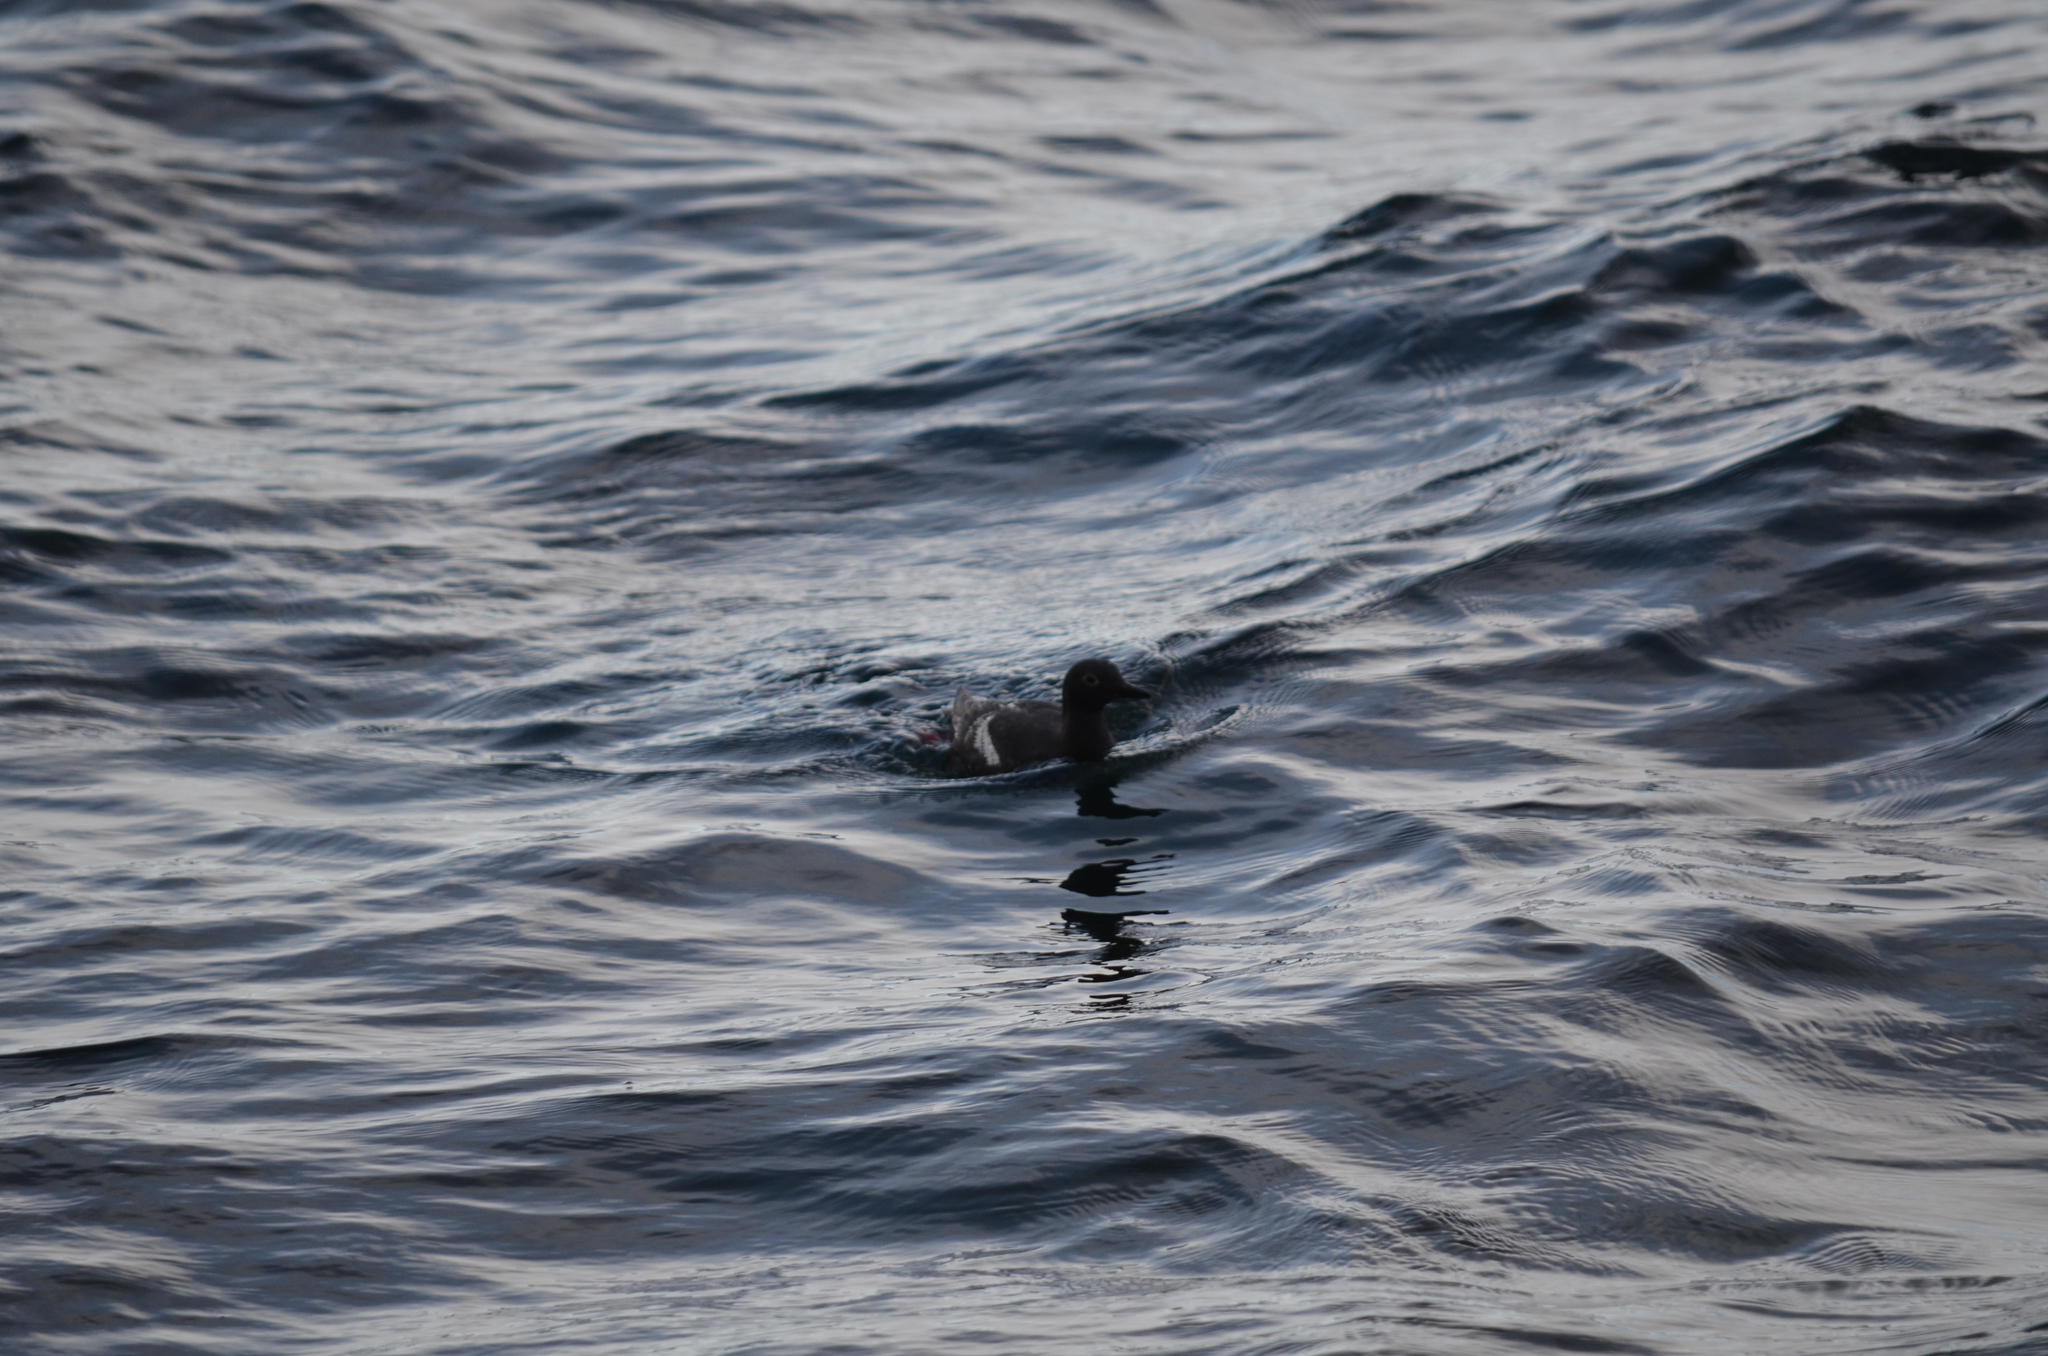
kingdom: Animalia
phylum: Chordata
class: Aves
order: Charadriiformes
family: Alcidae
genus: Cepphus
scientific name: Cepphus columba
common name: Pigeon guillemot
